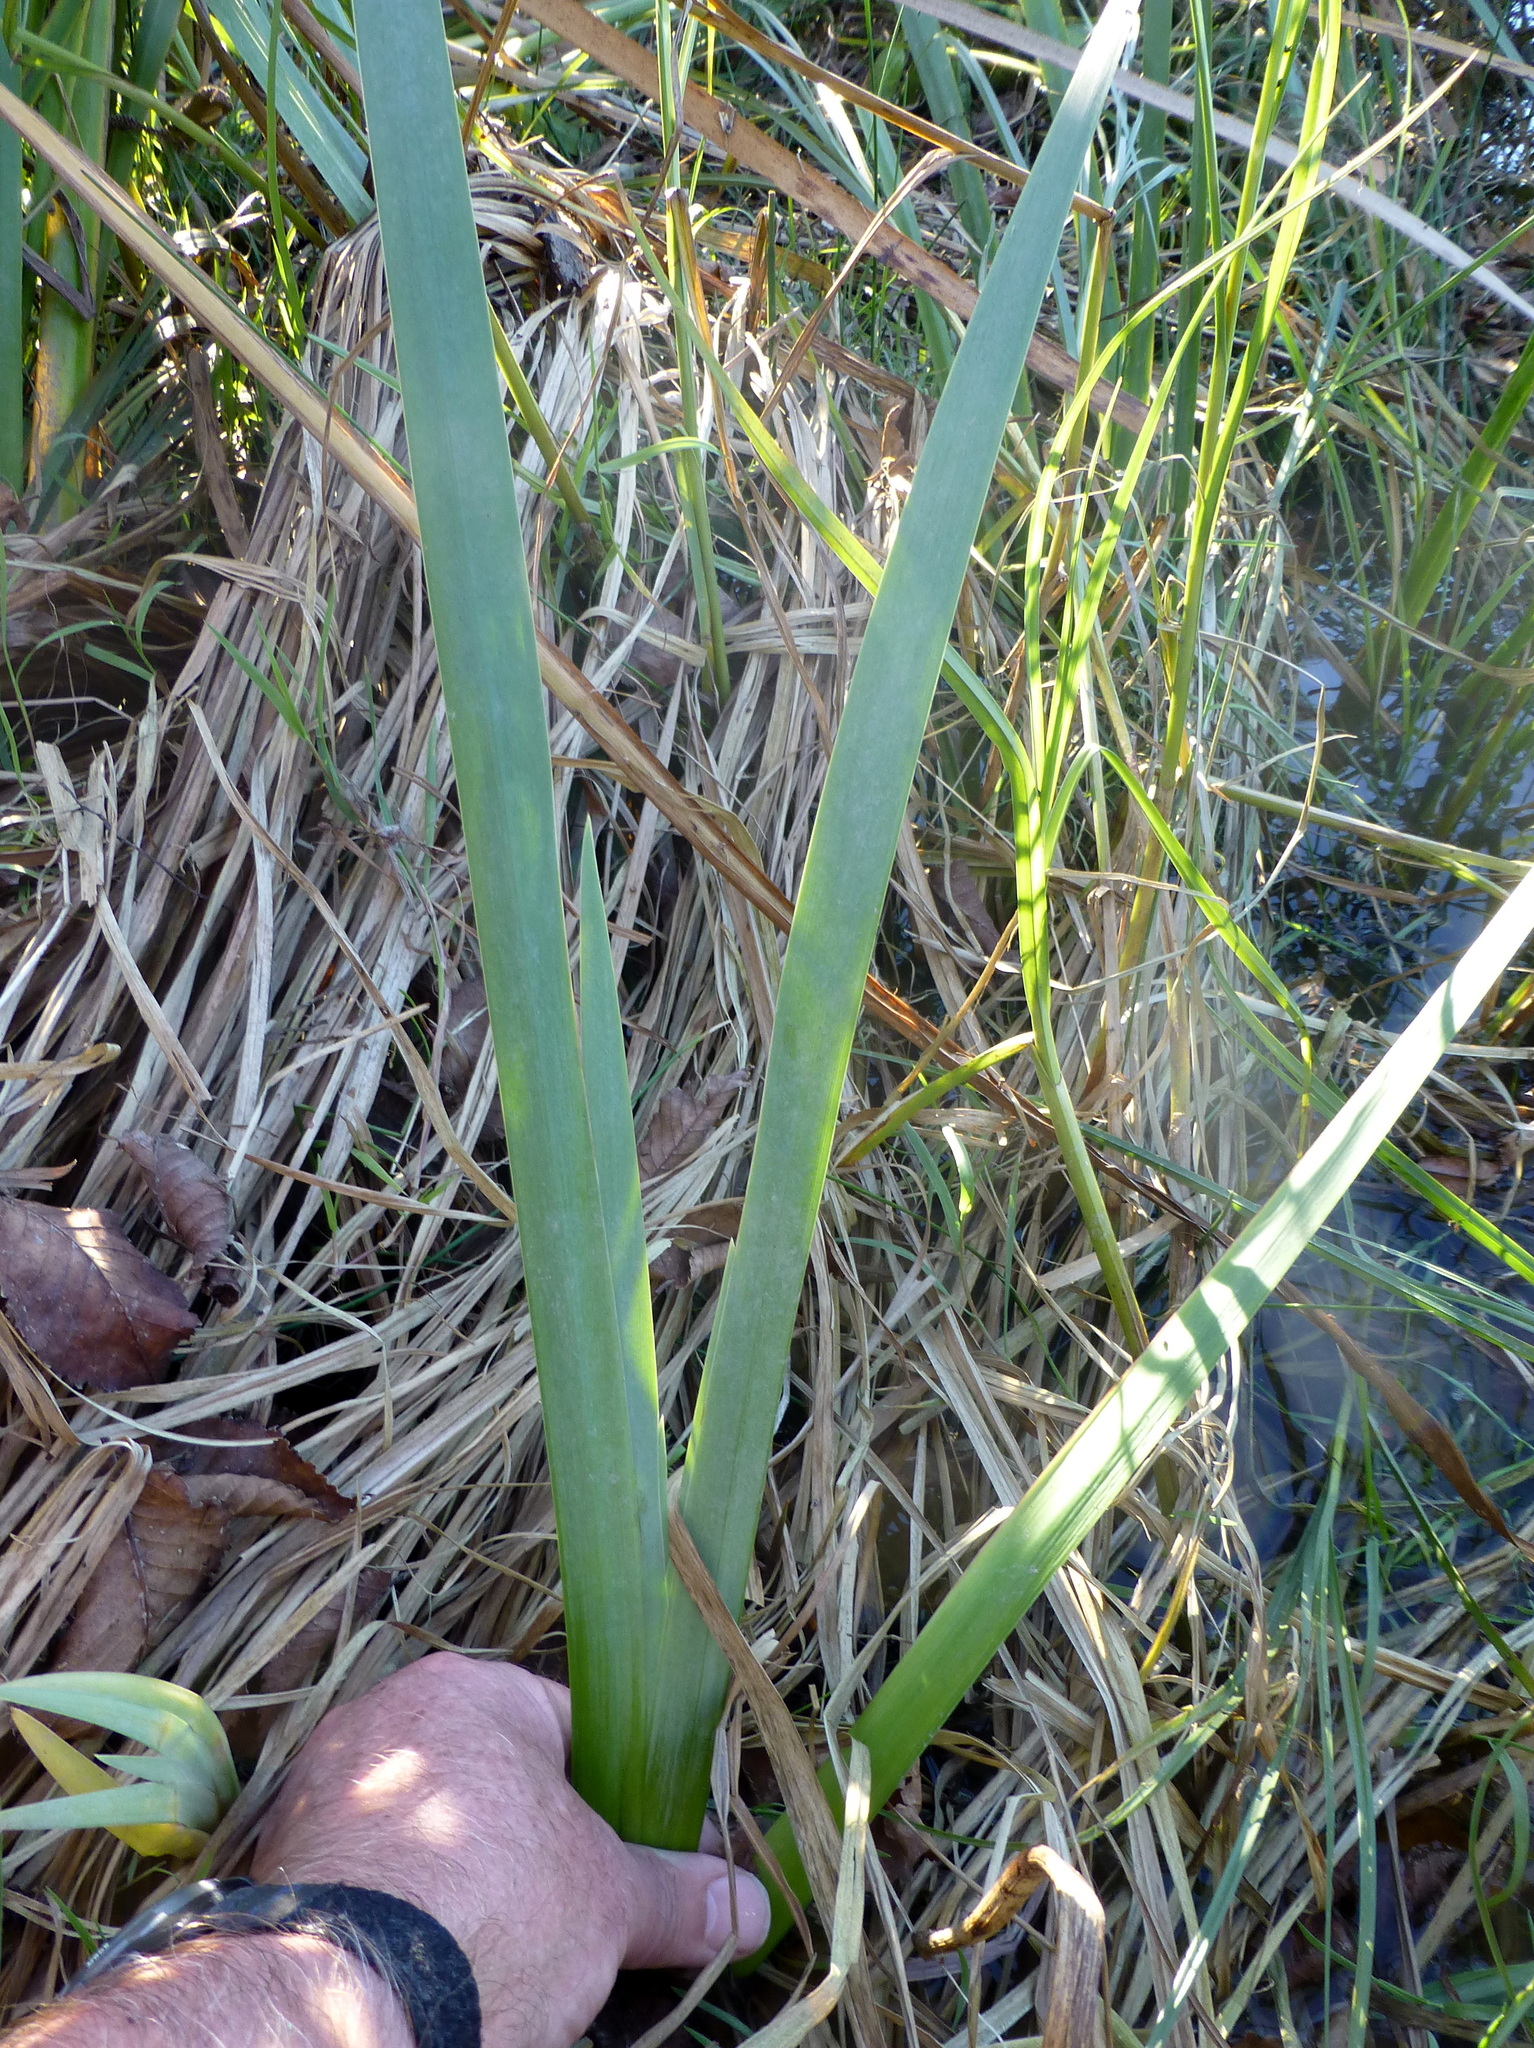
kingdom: Plantae
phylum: Tracheophyta
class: Liliopsida
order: Asparagales
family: Iridaceae
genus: Iris
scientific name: Iris pseudacorus
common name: Yellow flag
